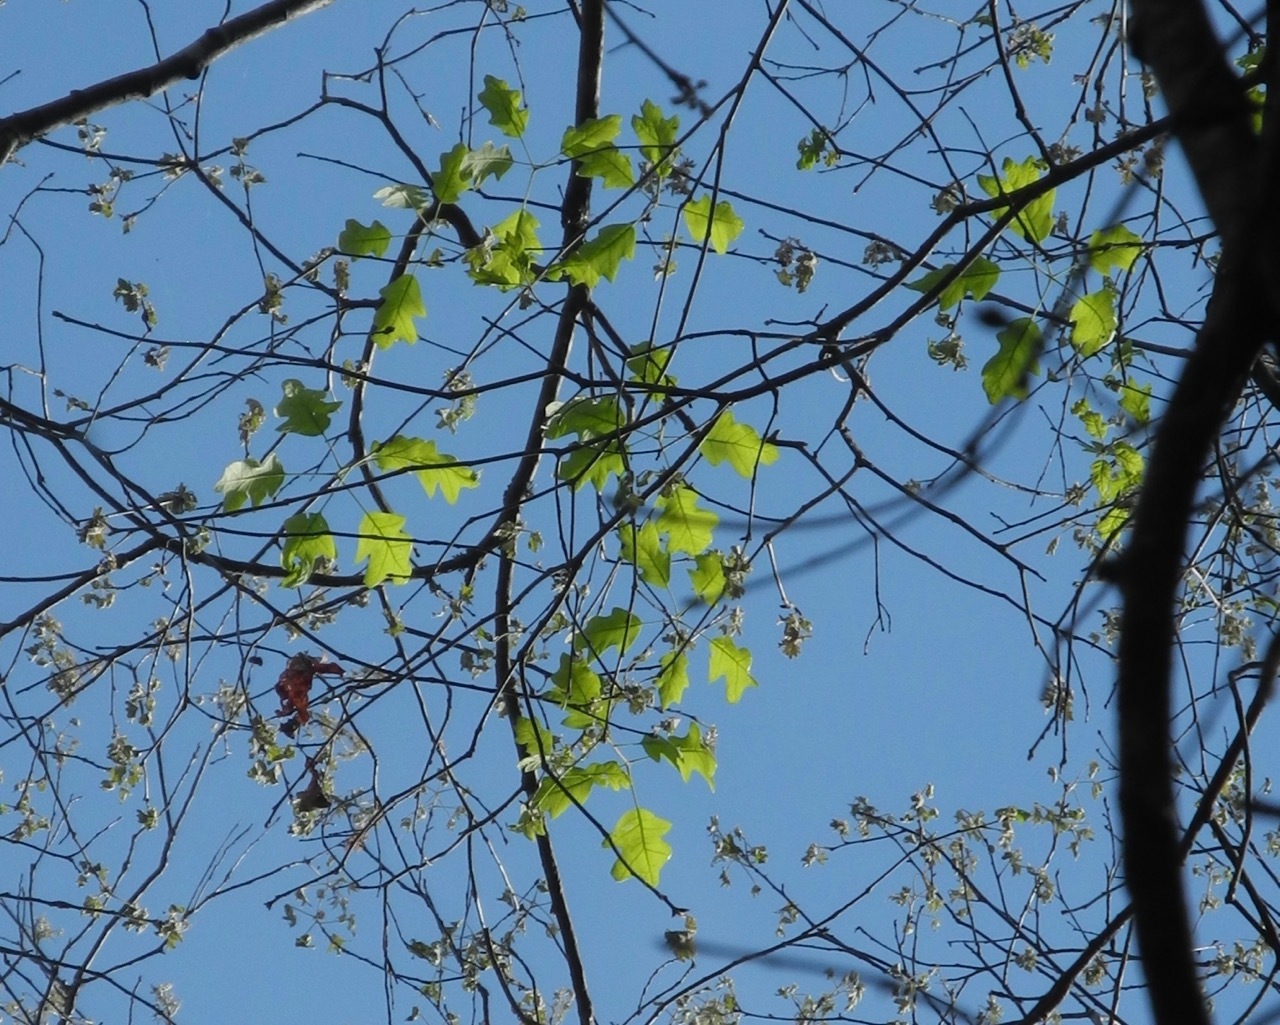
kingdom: Plantae
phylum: Tracheophyta
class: Magnoliopsida
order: Fagales
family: Fagaceae
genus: Quercus
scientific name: Quercus pagoda
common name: Cherrybark oak
